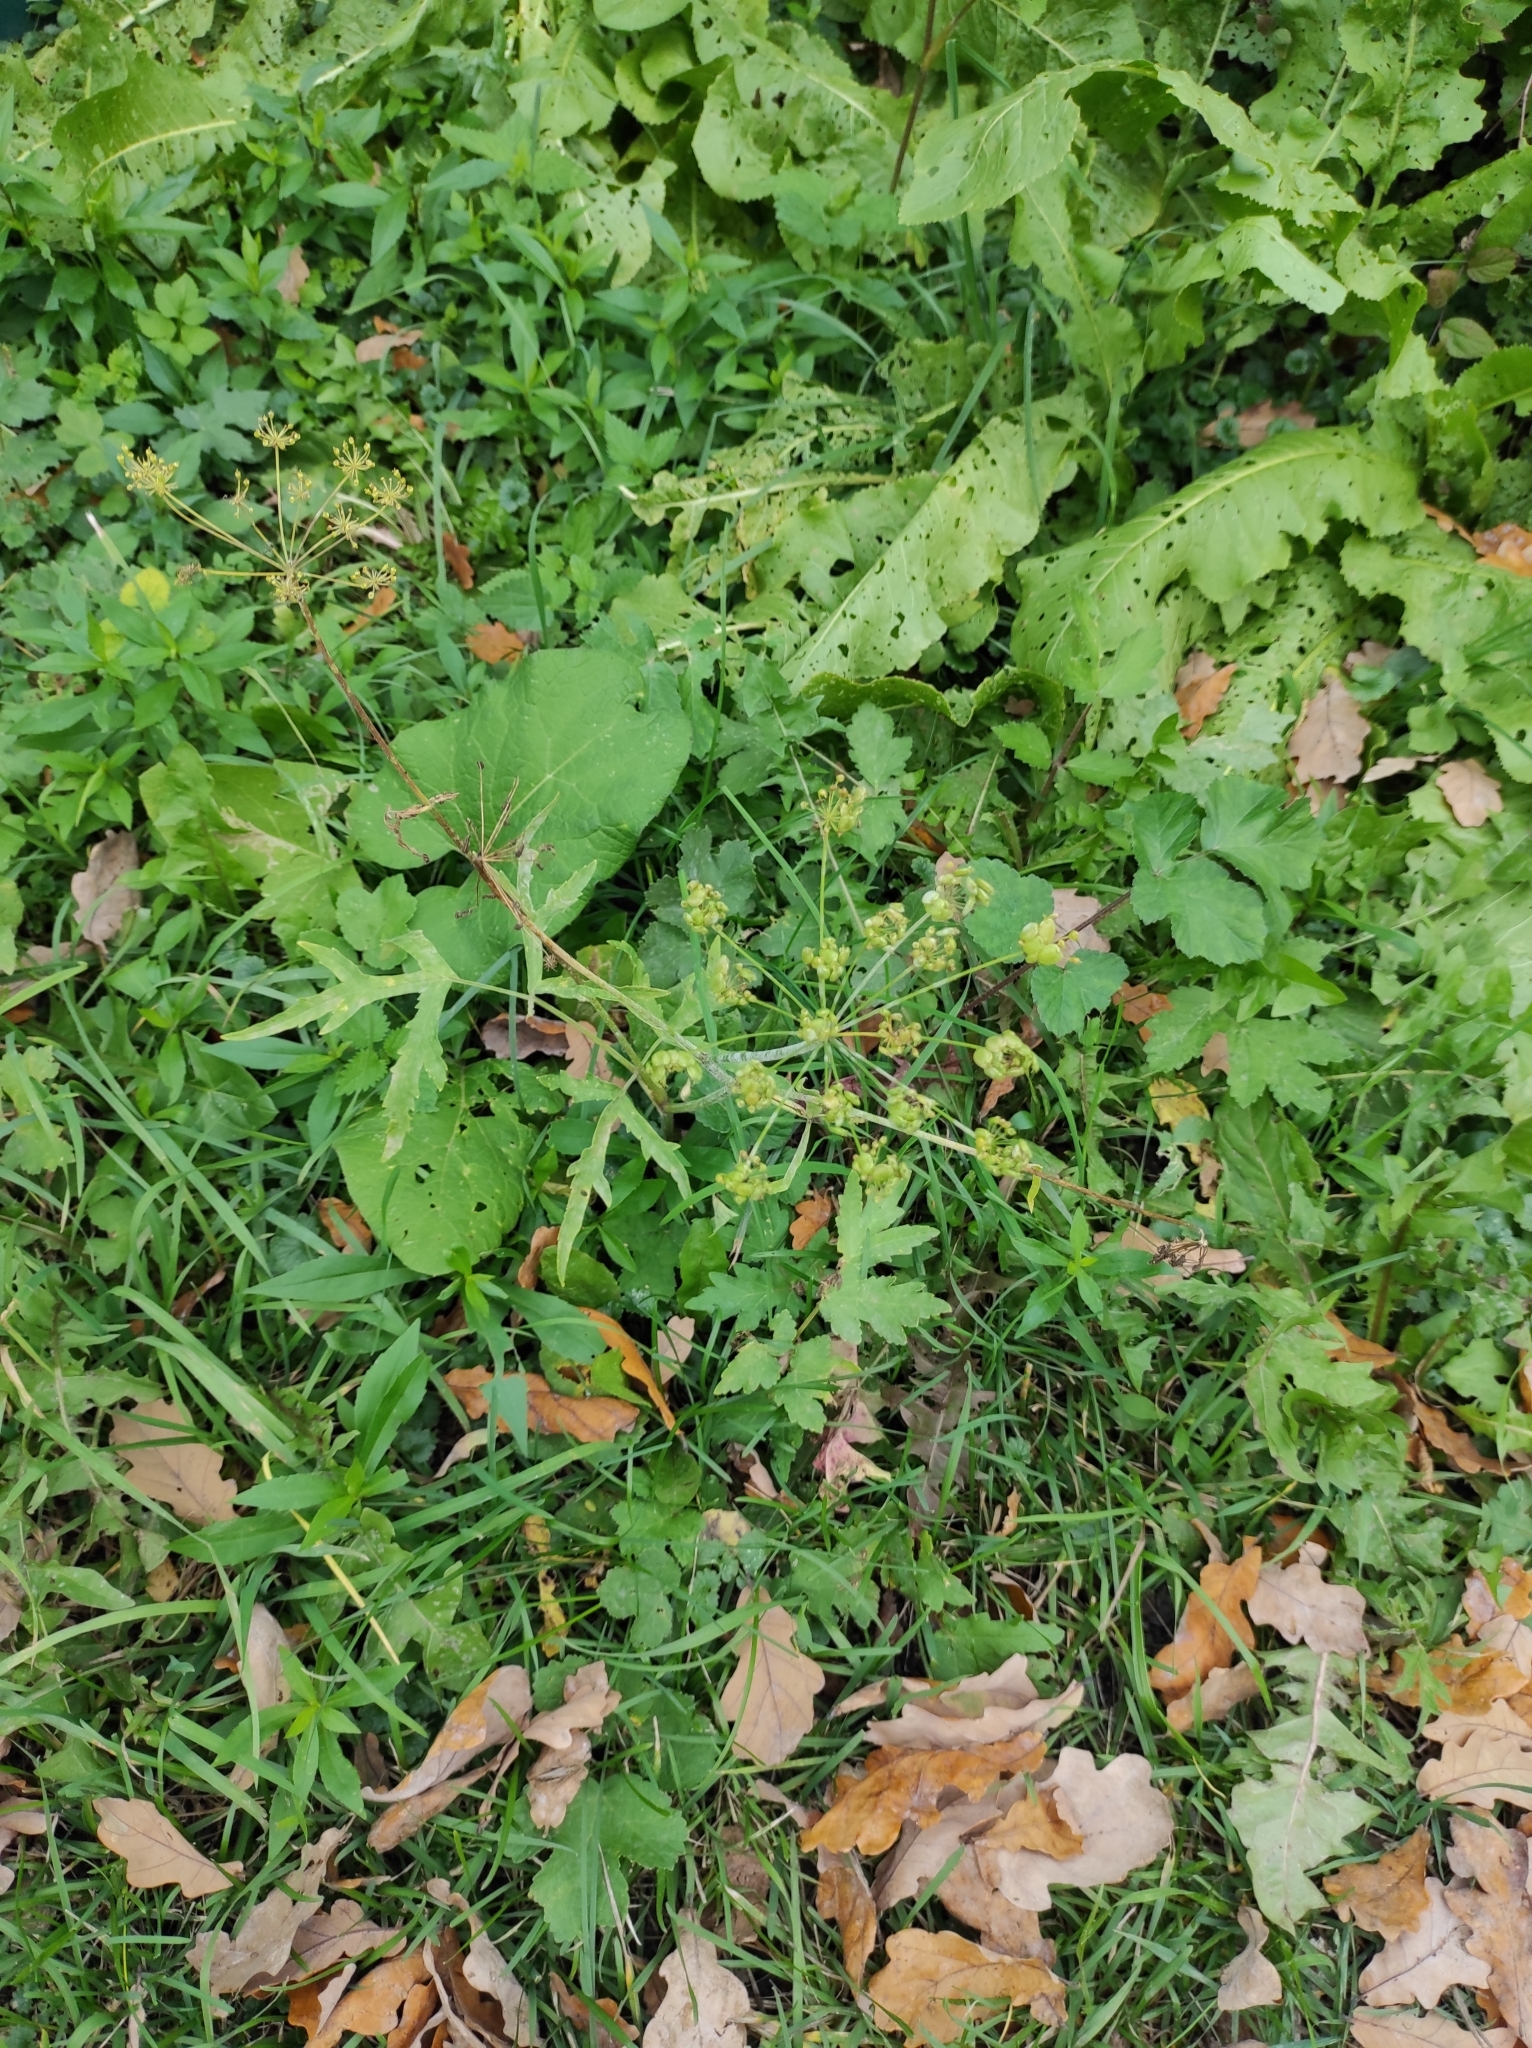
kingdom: Plantae
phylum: Tracheophyta
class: Magnoliopsida
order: Apiales
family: Apiaceae
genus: Heracleum
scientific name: Heracleum sphondylium
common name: Hogweed
